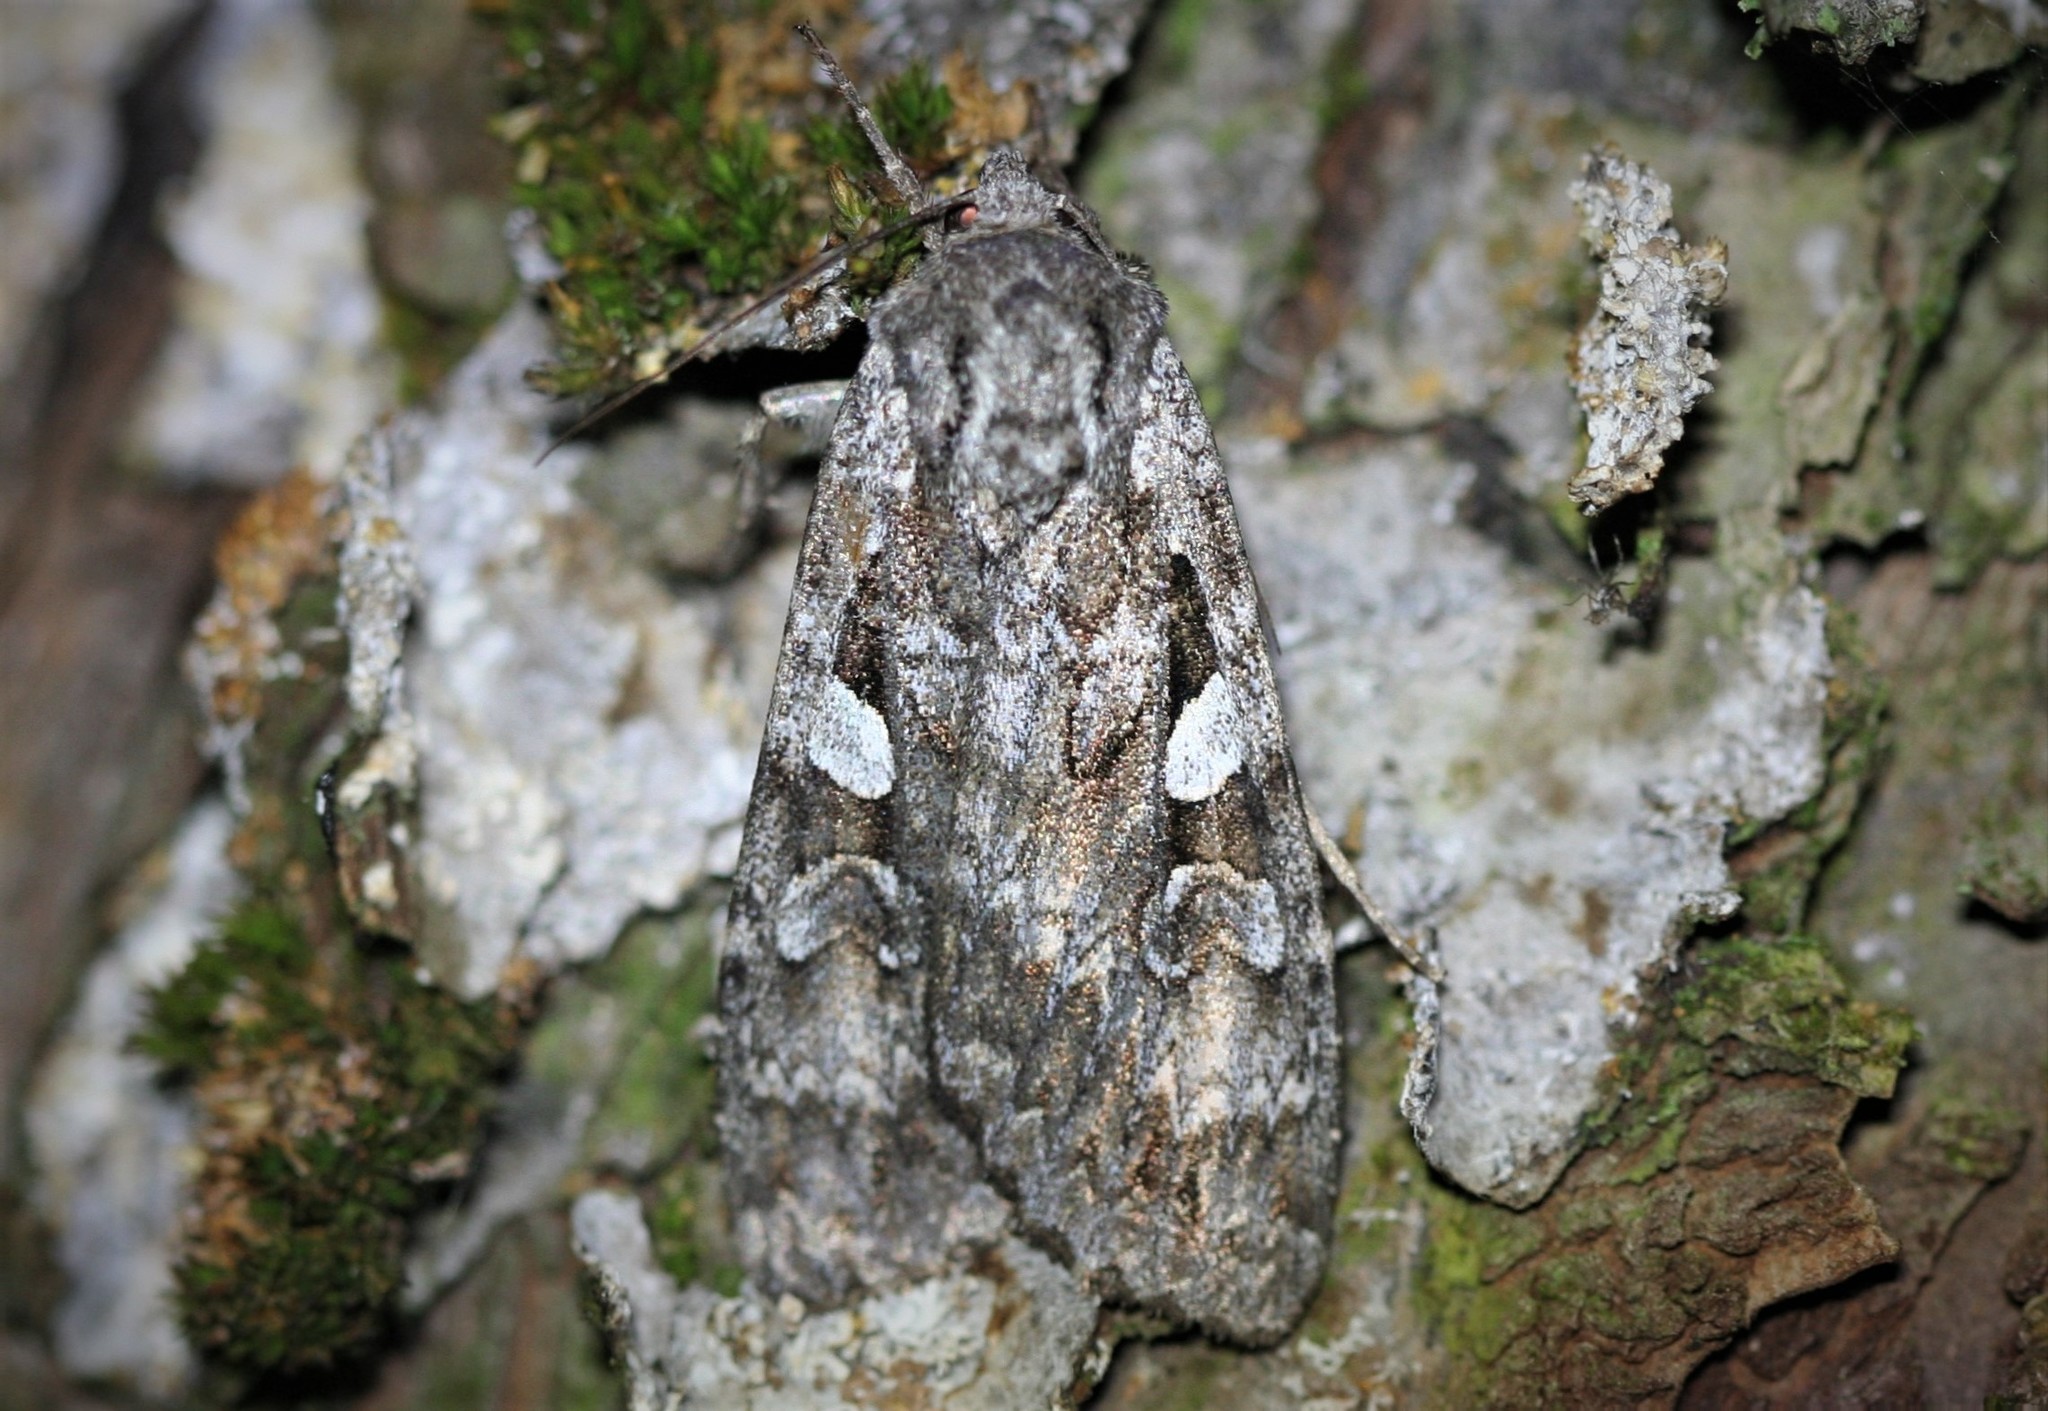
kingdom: Animalia
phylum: Arthropoda
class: Insecta
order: Lepidoptera
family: Noctuidae
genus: Eurois
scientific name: Eurois occulta
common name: Great brocade
